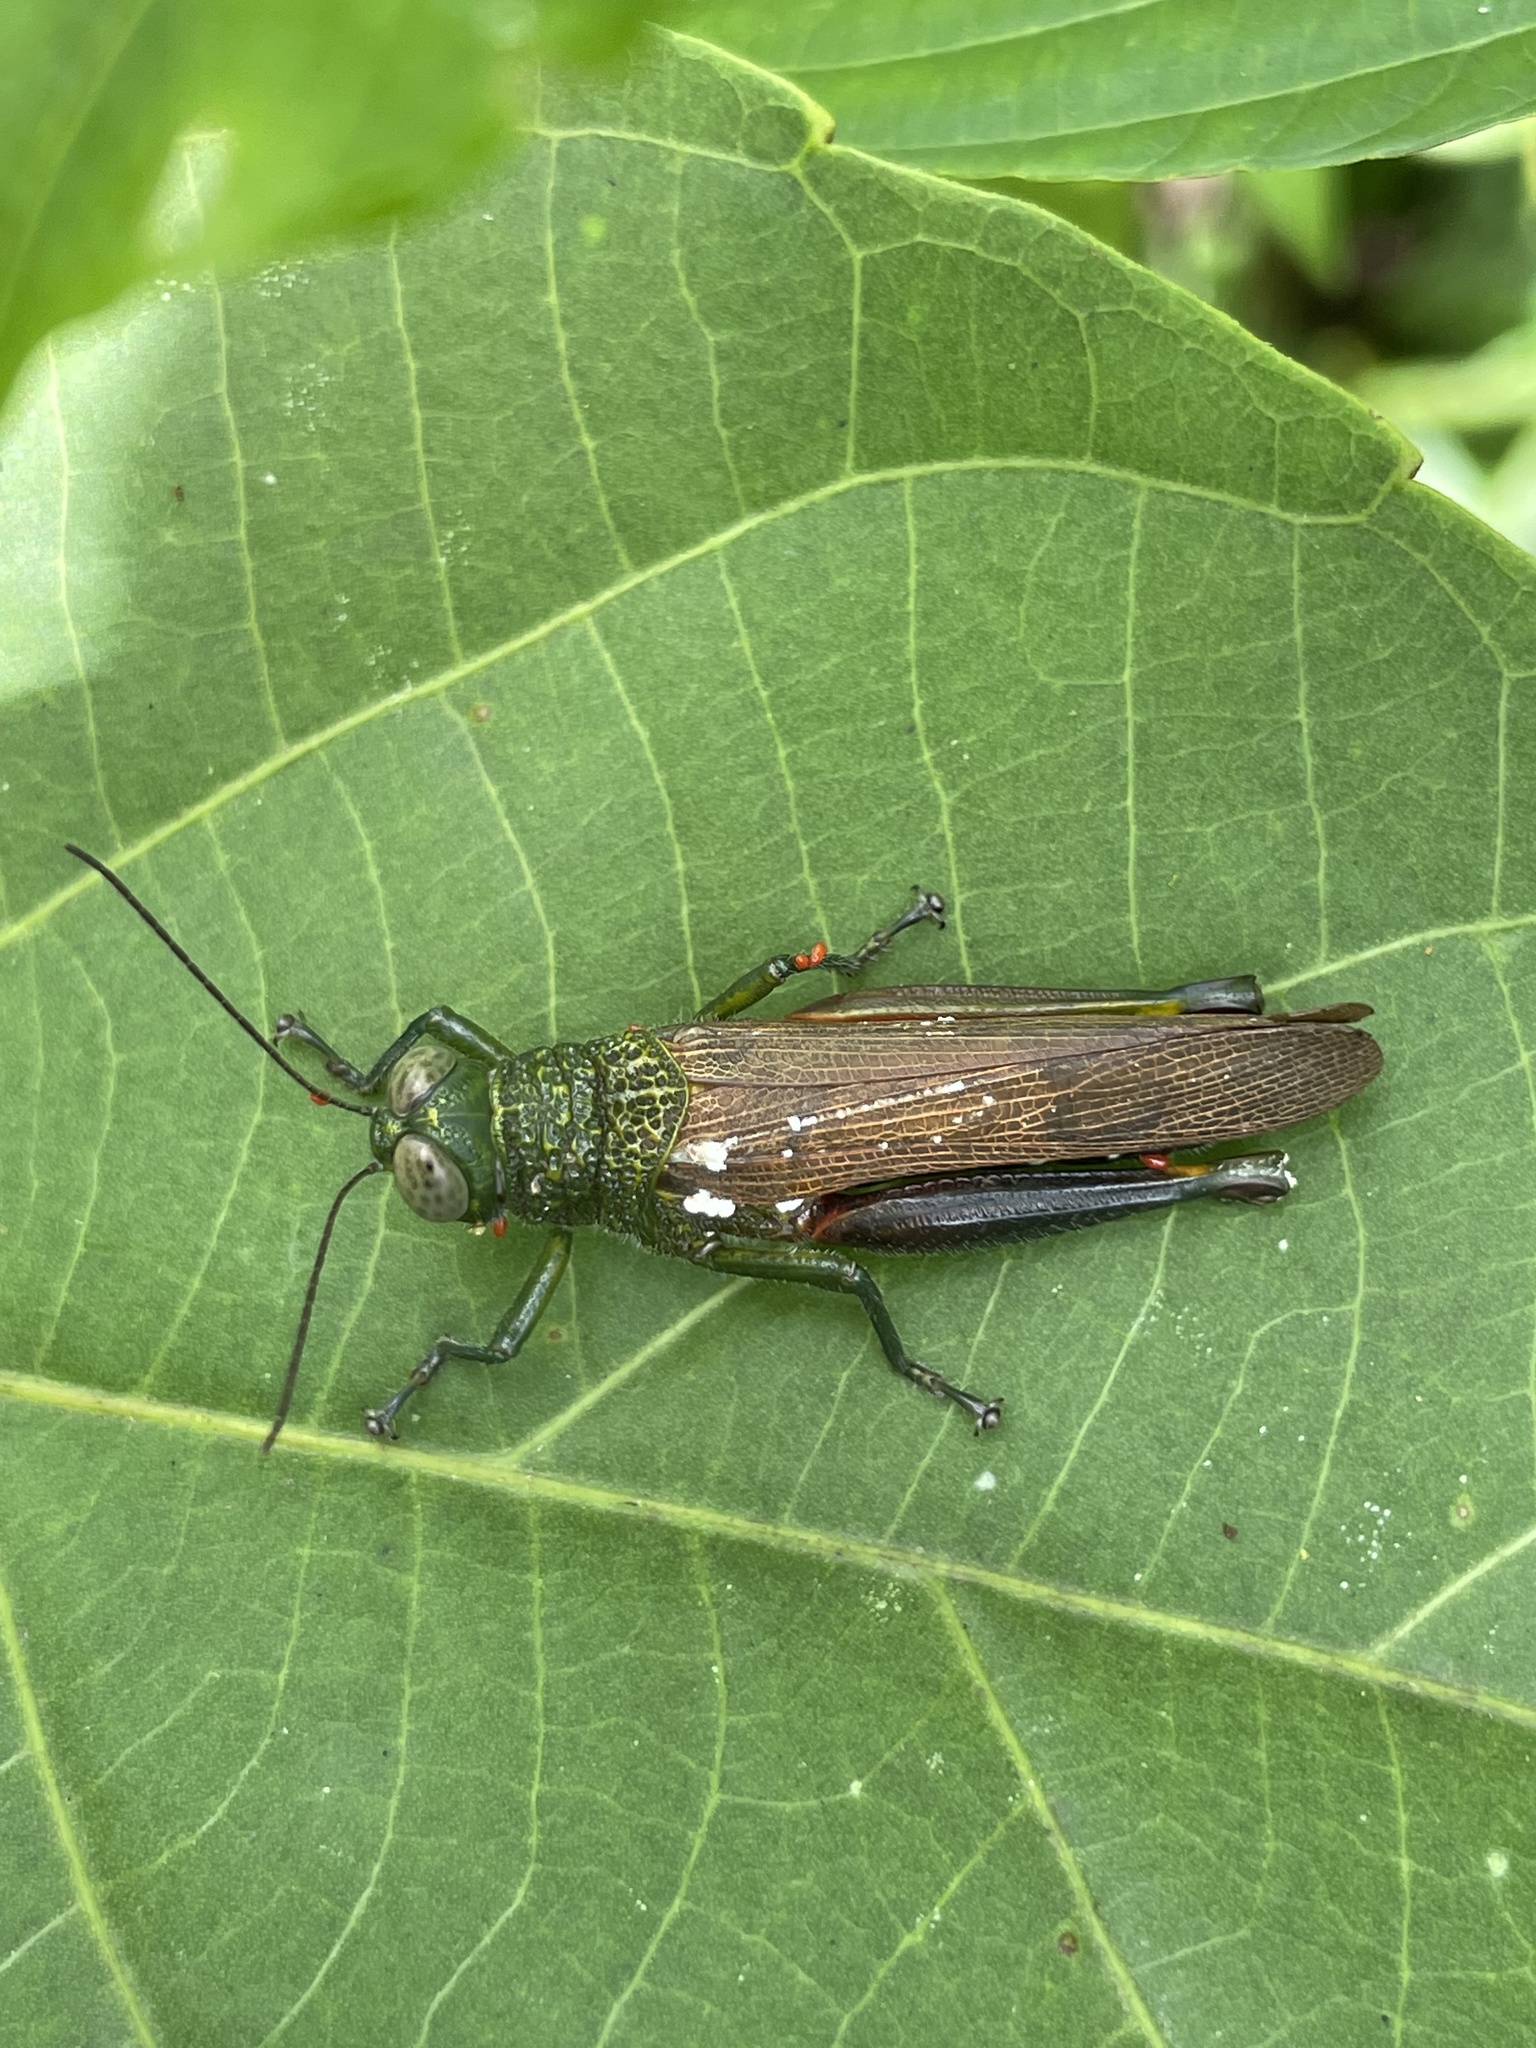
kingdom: Animalia
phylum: Arthropoda
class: Insecta
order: Orthoptera
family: Acrididae
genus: Coscineuta
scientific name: Coscineuta pulchripes
